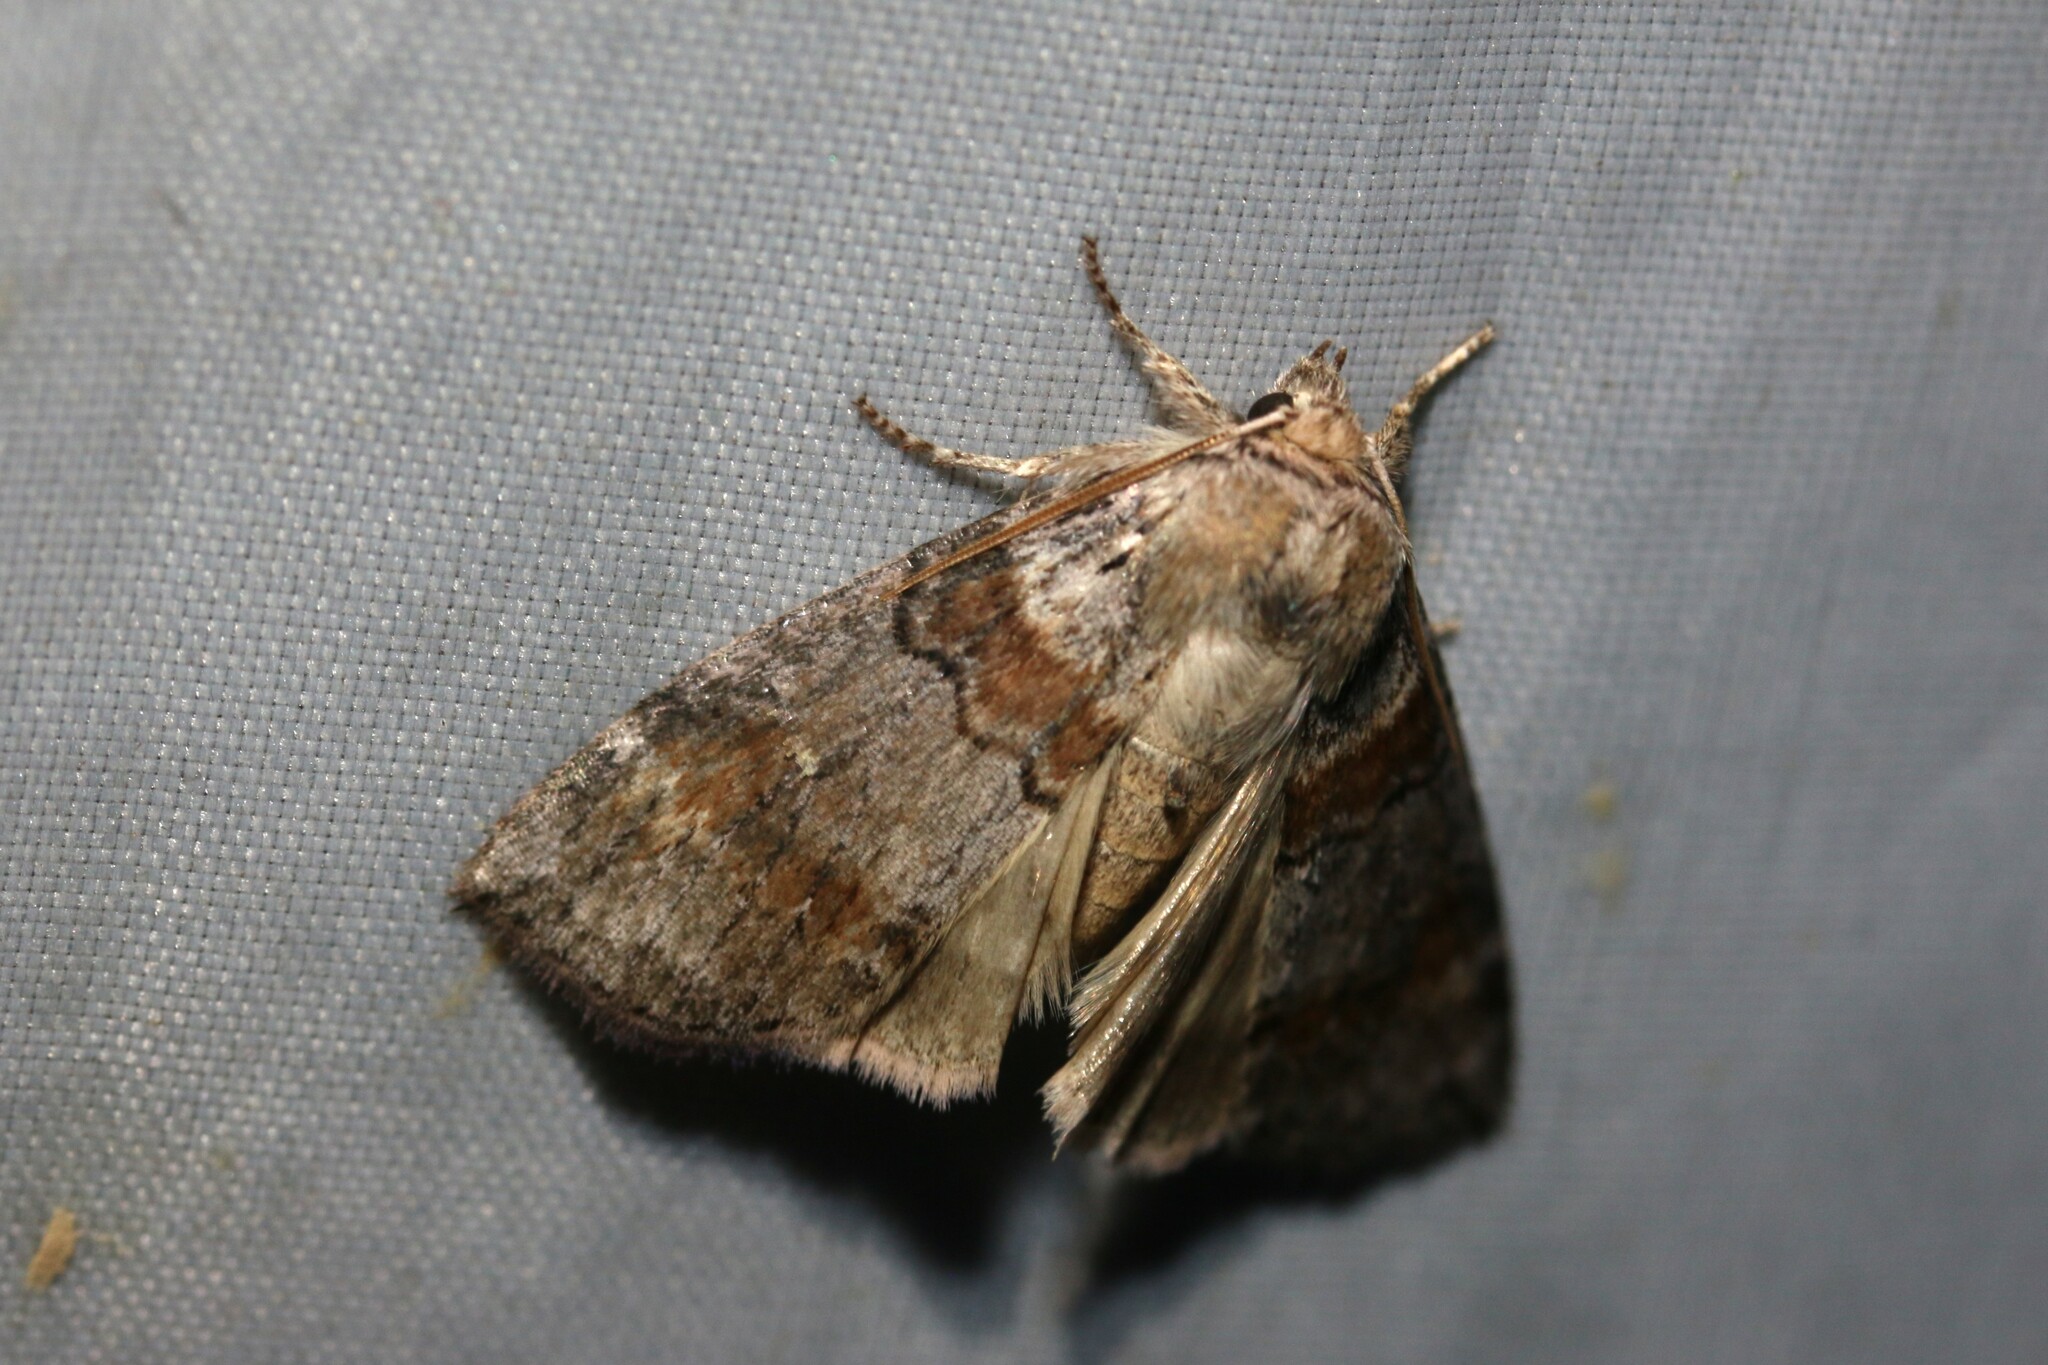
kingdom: Animalia
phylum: Arthropoda
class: Insecta
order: Lepidoptera
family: Drepanidae
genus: Cymatophorina
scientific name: Cymatophorina diluta
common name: Oak lutestring
